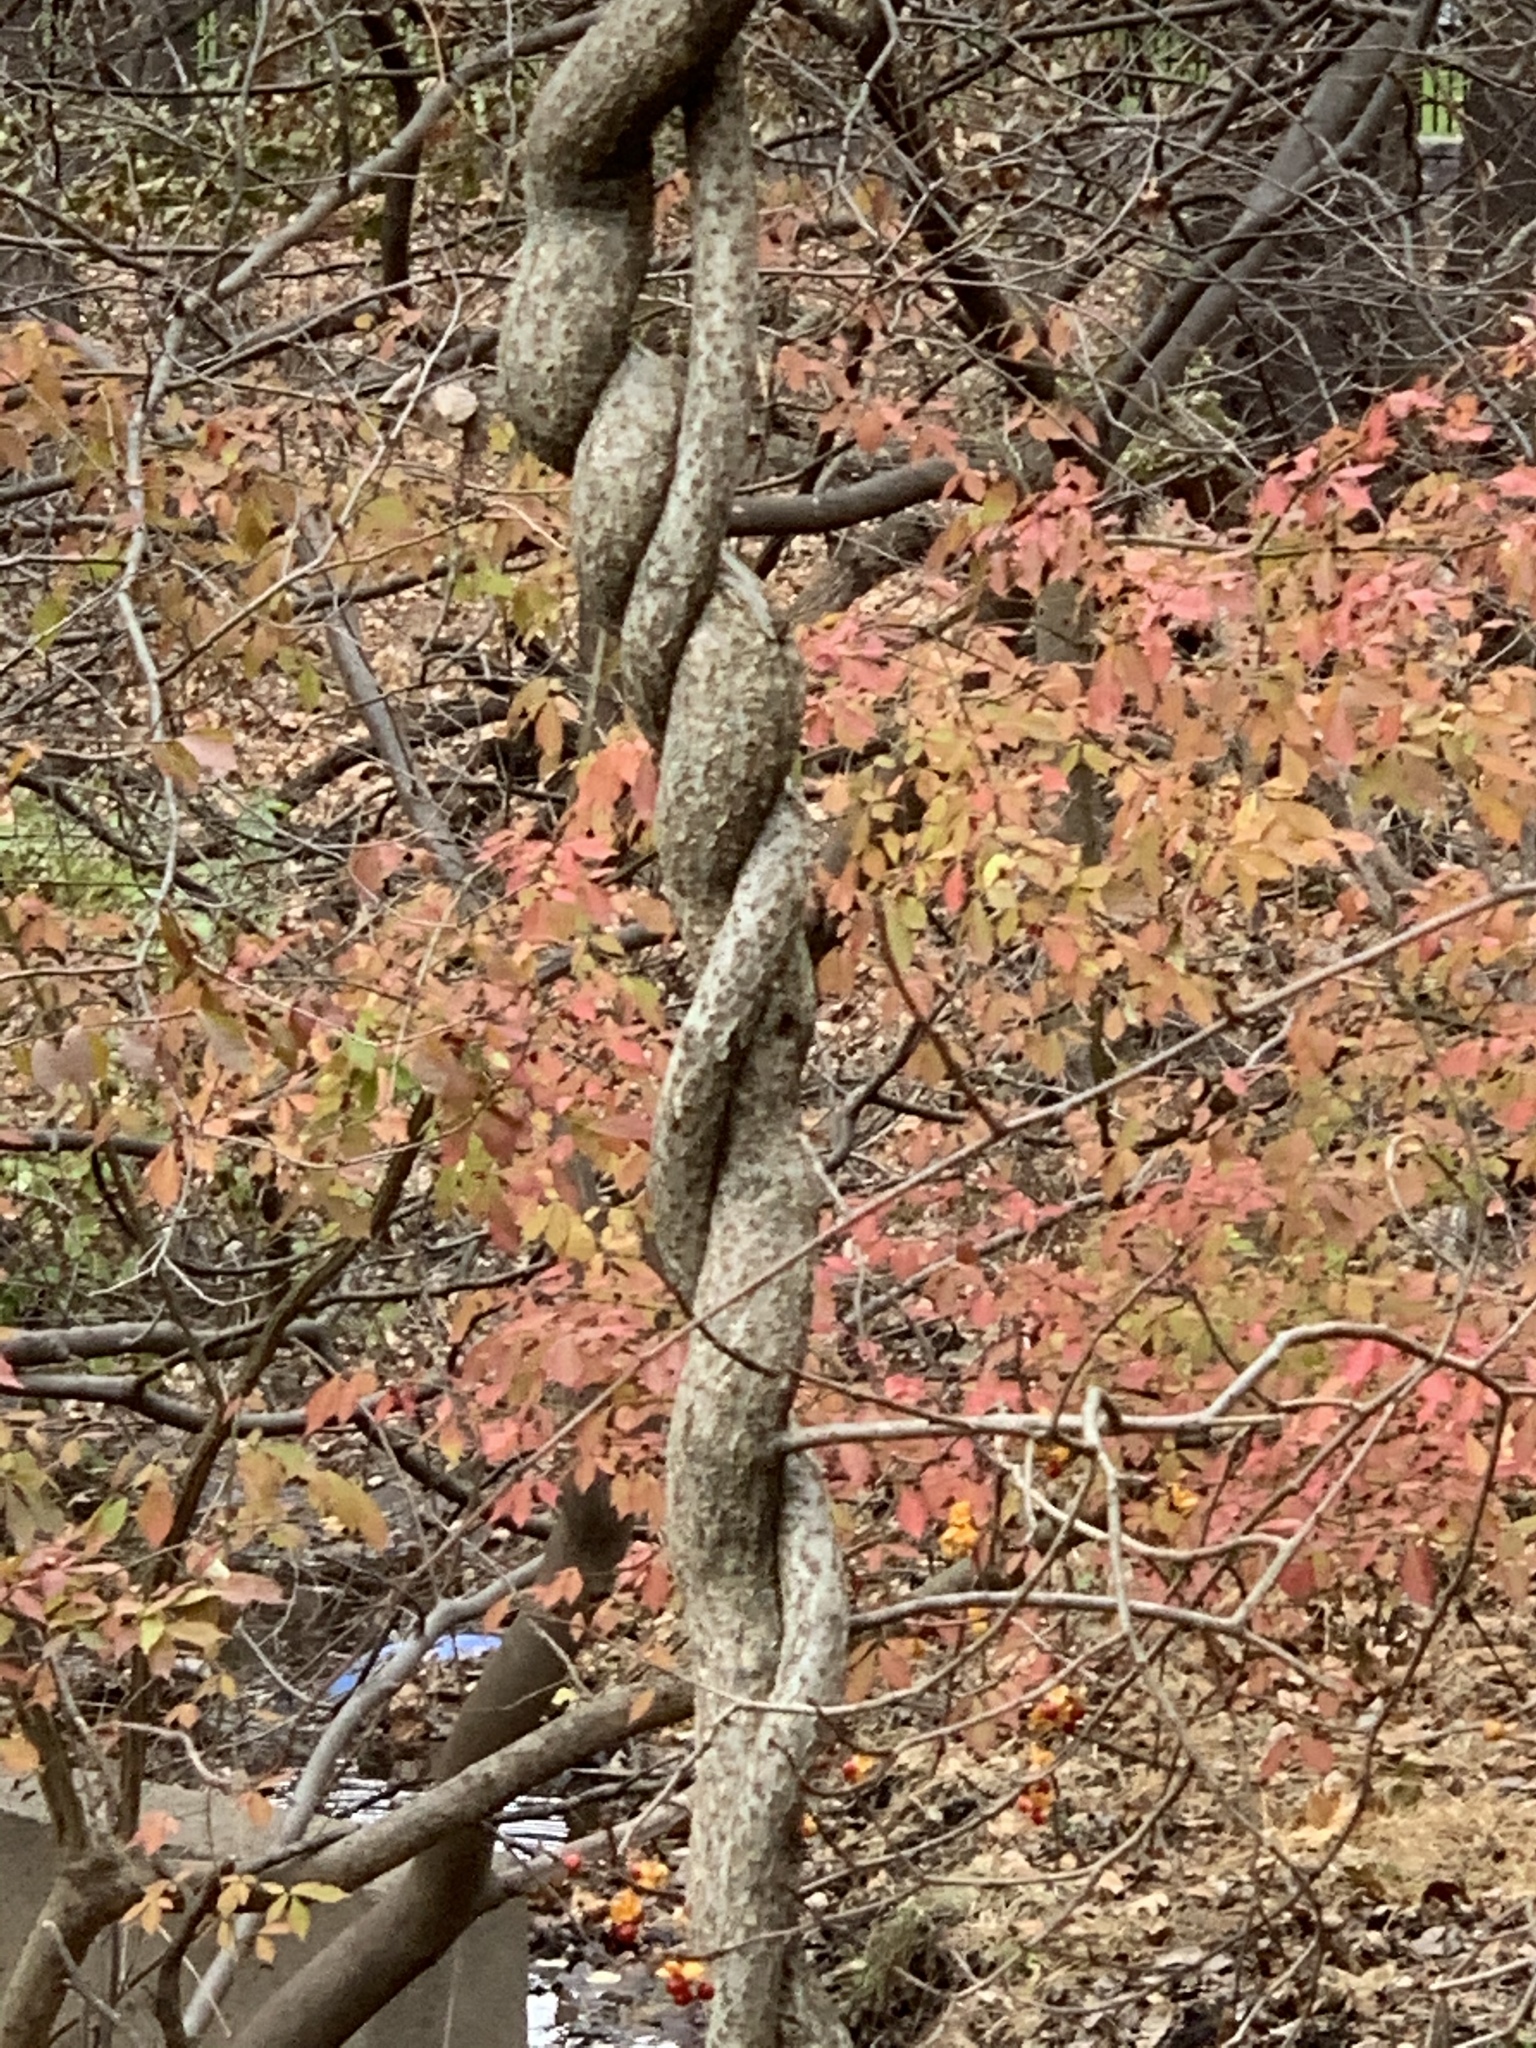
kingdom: Plantae
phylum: Tracheophyta
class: Magnoliopsida
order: Celastrales
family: Celastraceae
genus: Celastrus
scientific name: Celastrus orbiculatus
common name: Oriental bittersweet
